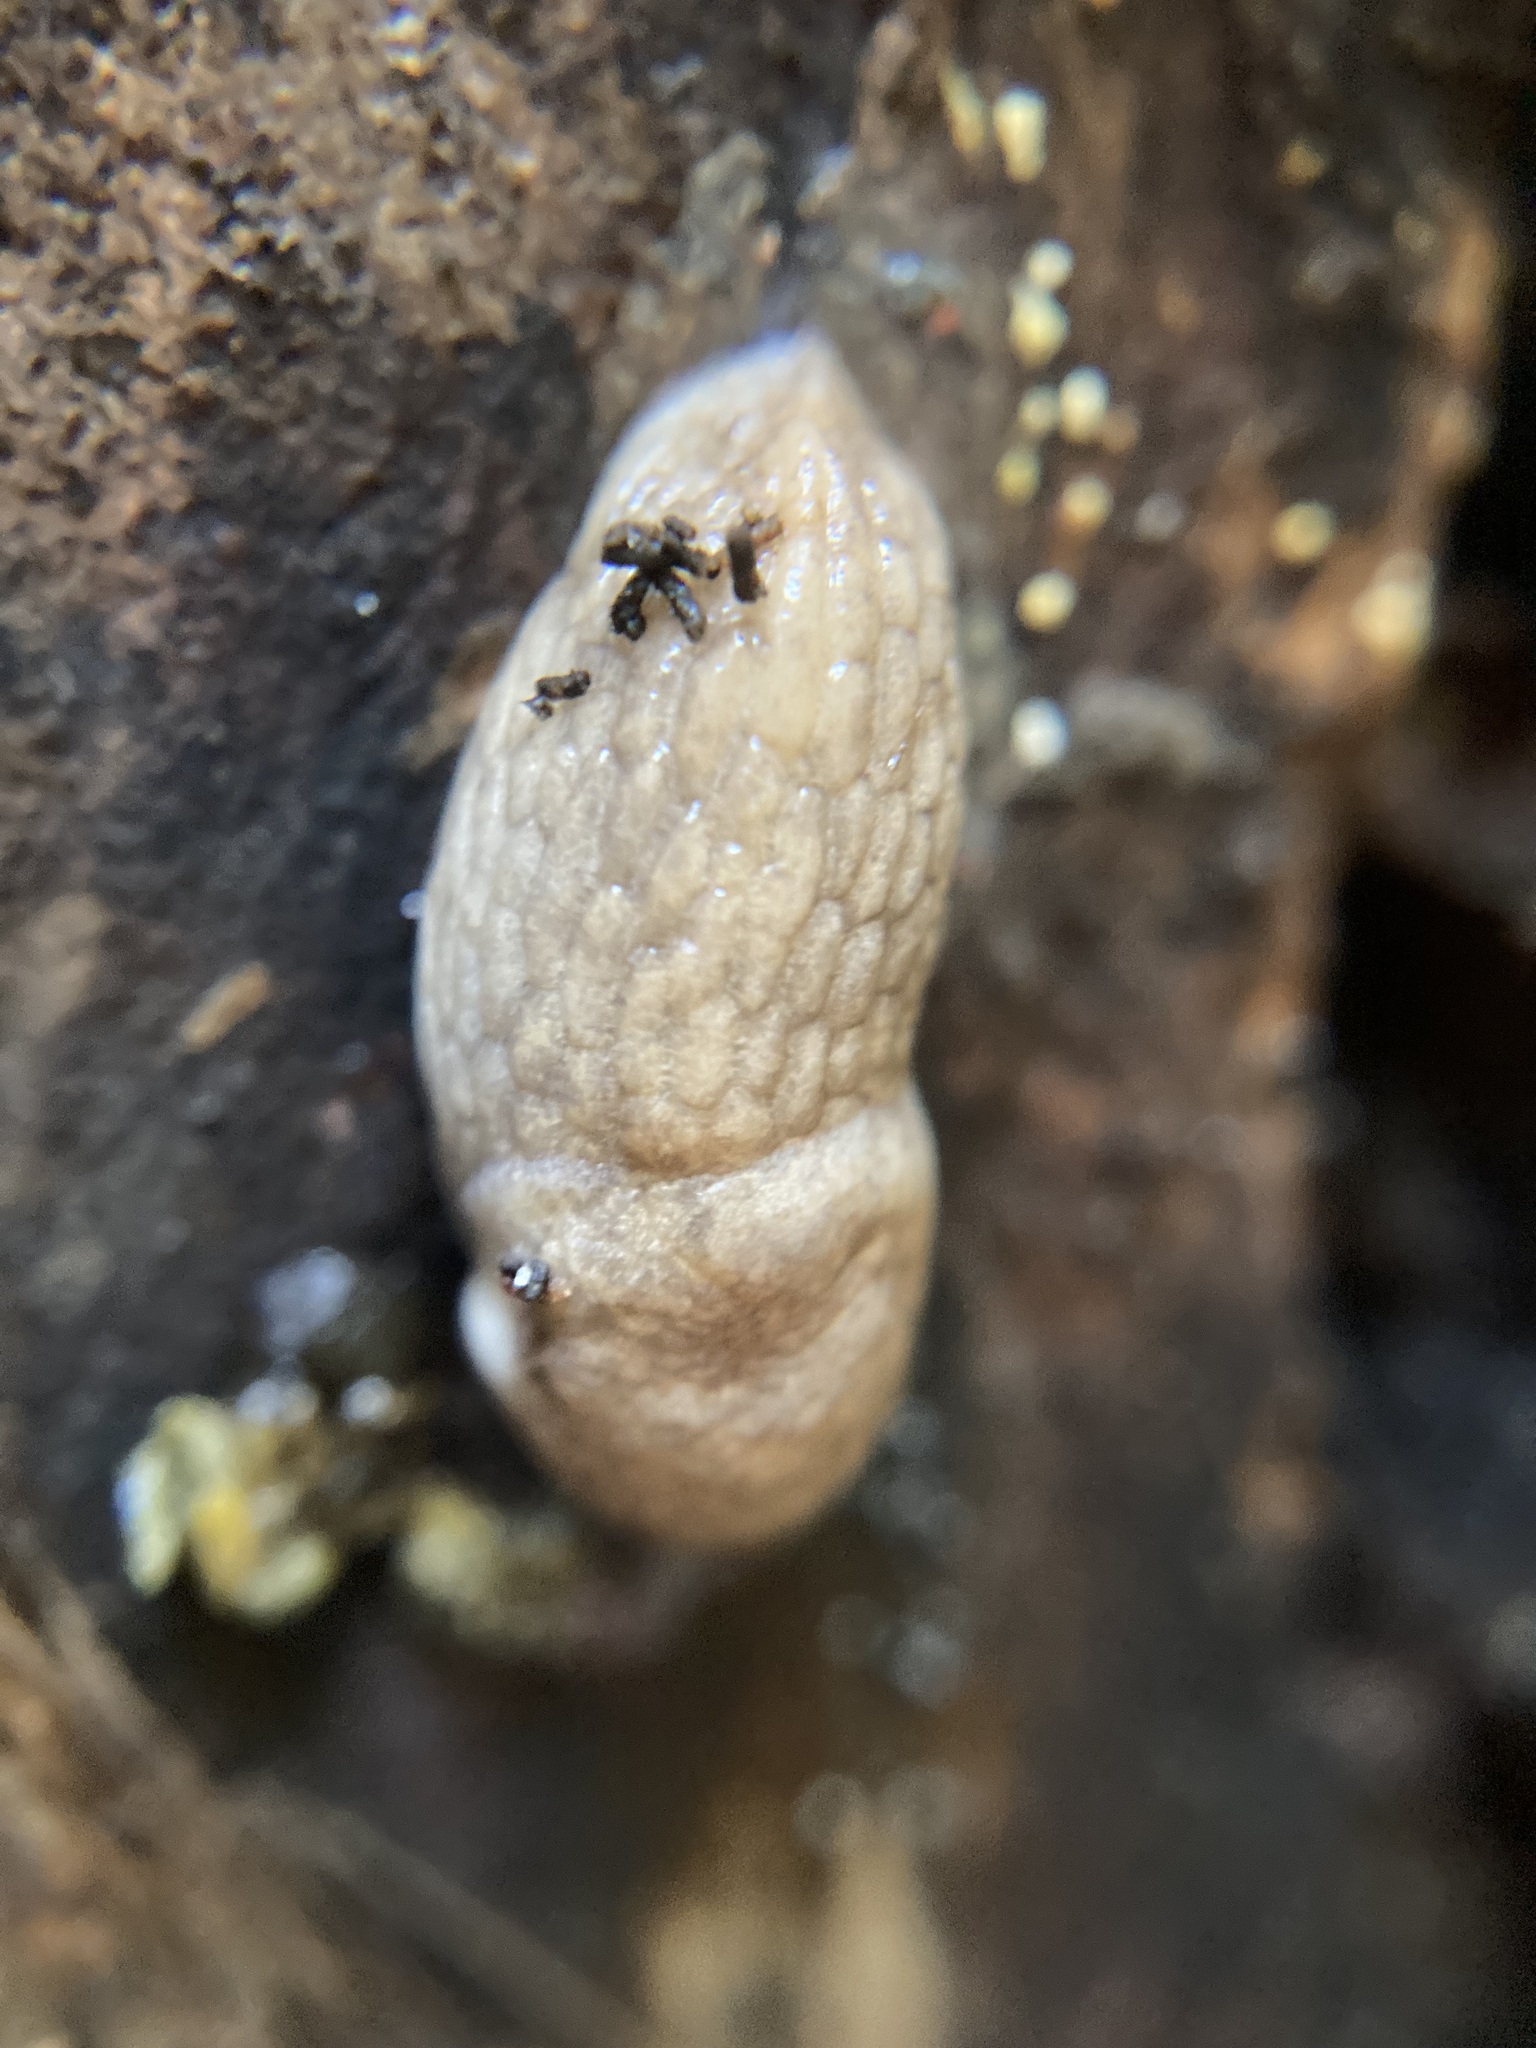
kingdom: Animalia
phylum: Mollusca
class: Gastropoda
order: Stylommatophora
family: Agriolimacidae
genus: Deroceras
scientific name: Deroceras reticulatum
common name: Gray field slug
